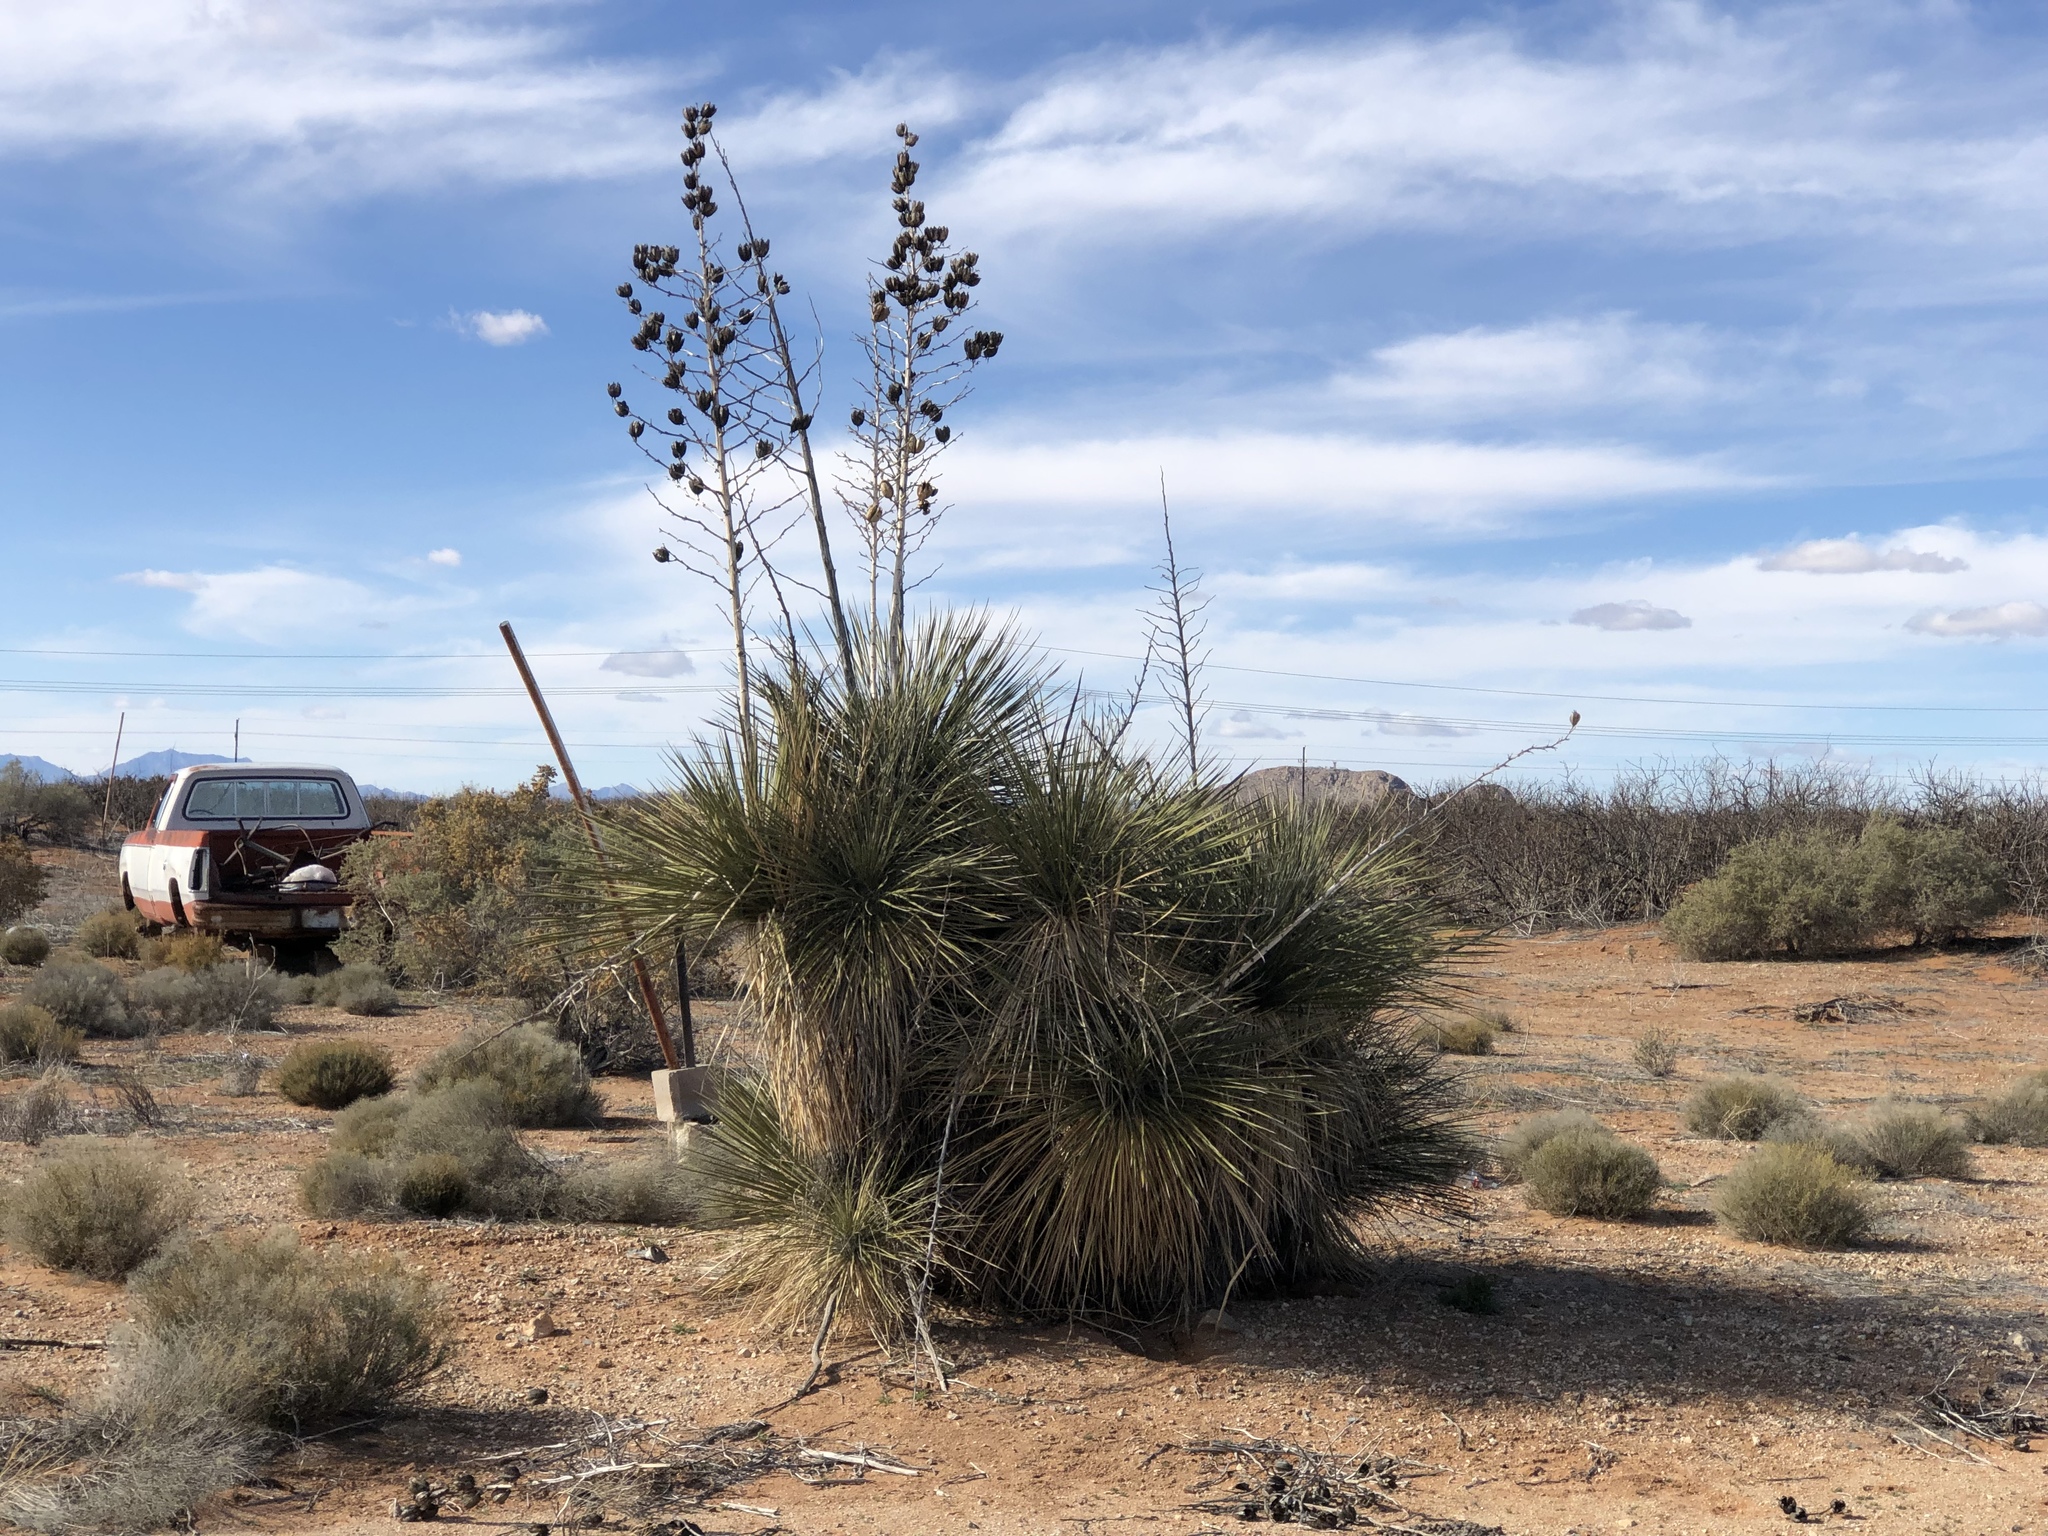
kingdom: Plantae
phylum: Tracheophyta
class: Liliopsida
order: Asparagales
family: Asparagaceae
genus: Yucca
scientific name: Yucca elata
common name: Palmella
